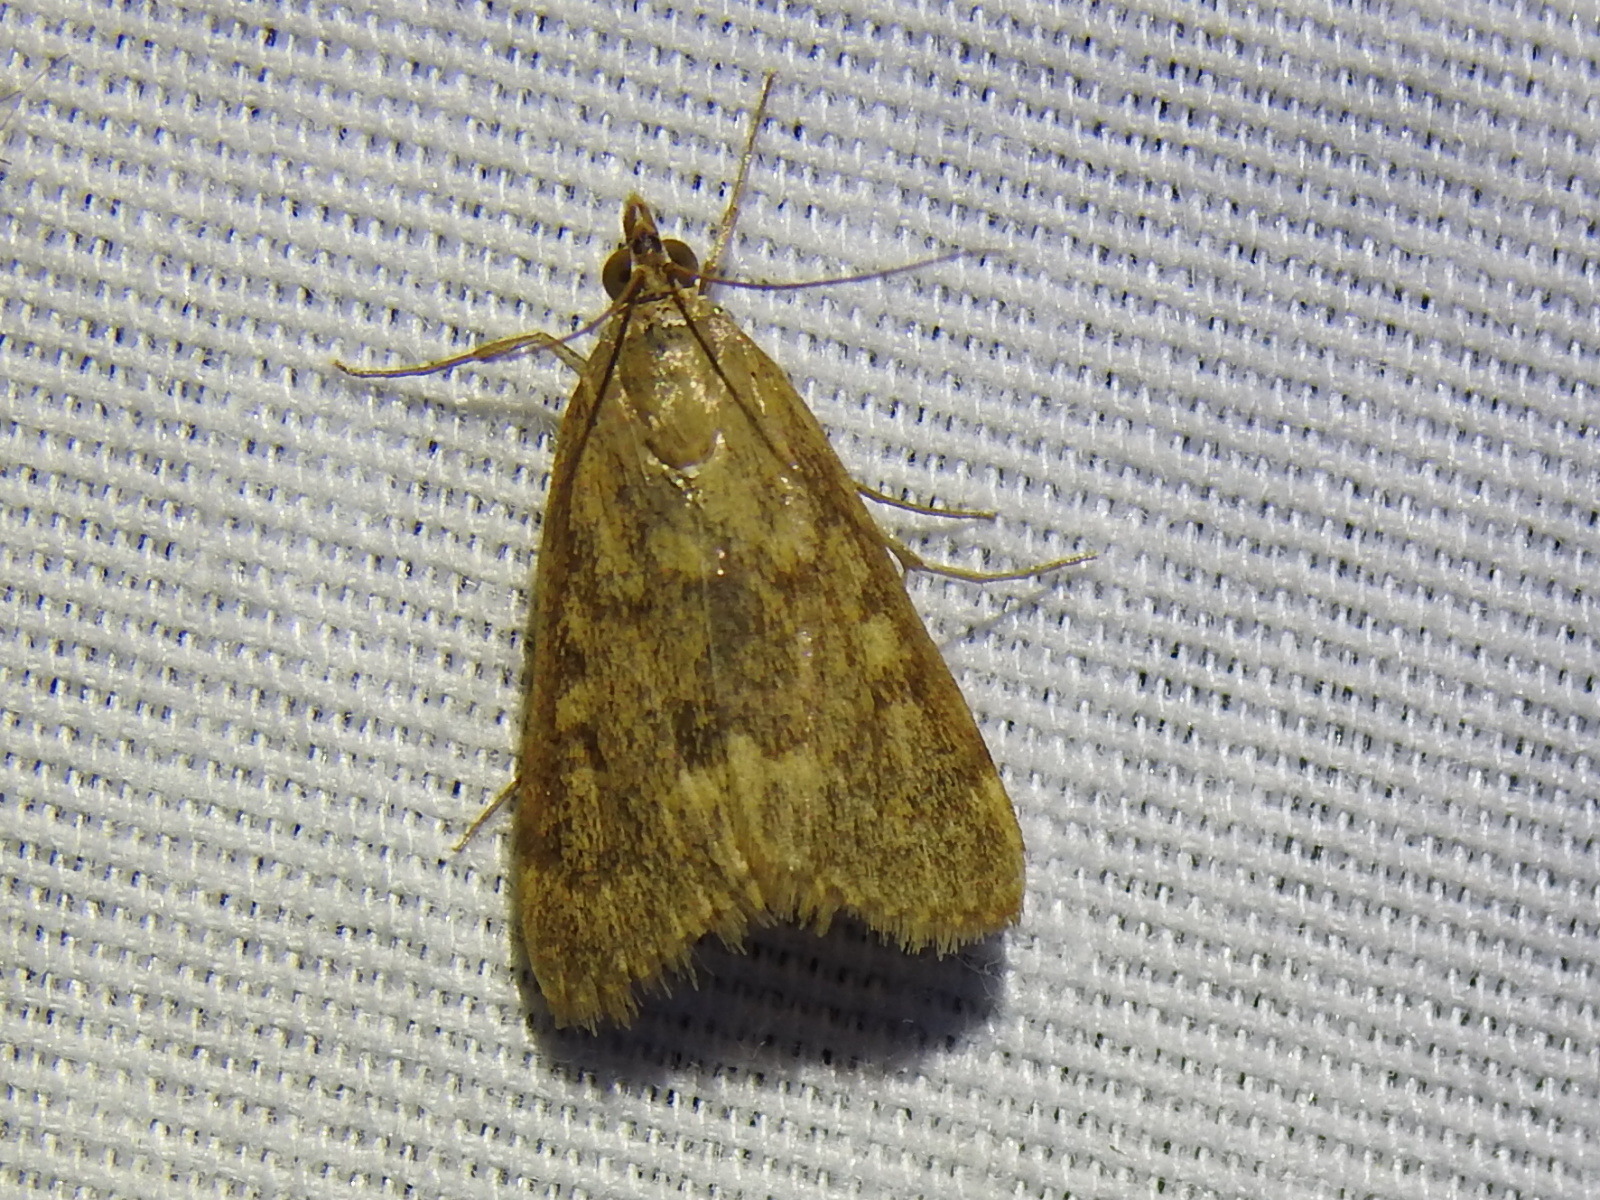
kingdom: Animalia
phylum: Arthropoda
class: Insecta
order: Lepidoptera
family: Crambidae
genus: Achyra
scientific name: Achyra rantalis
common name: Garden webworm
